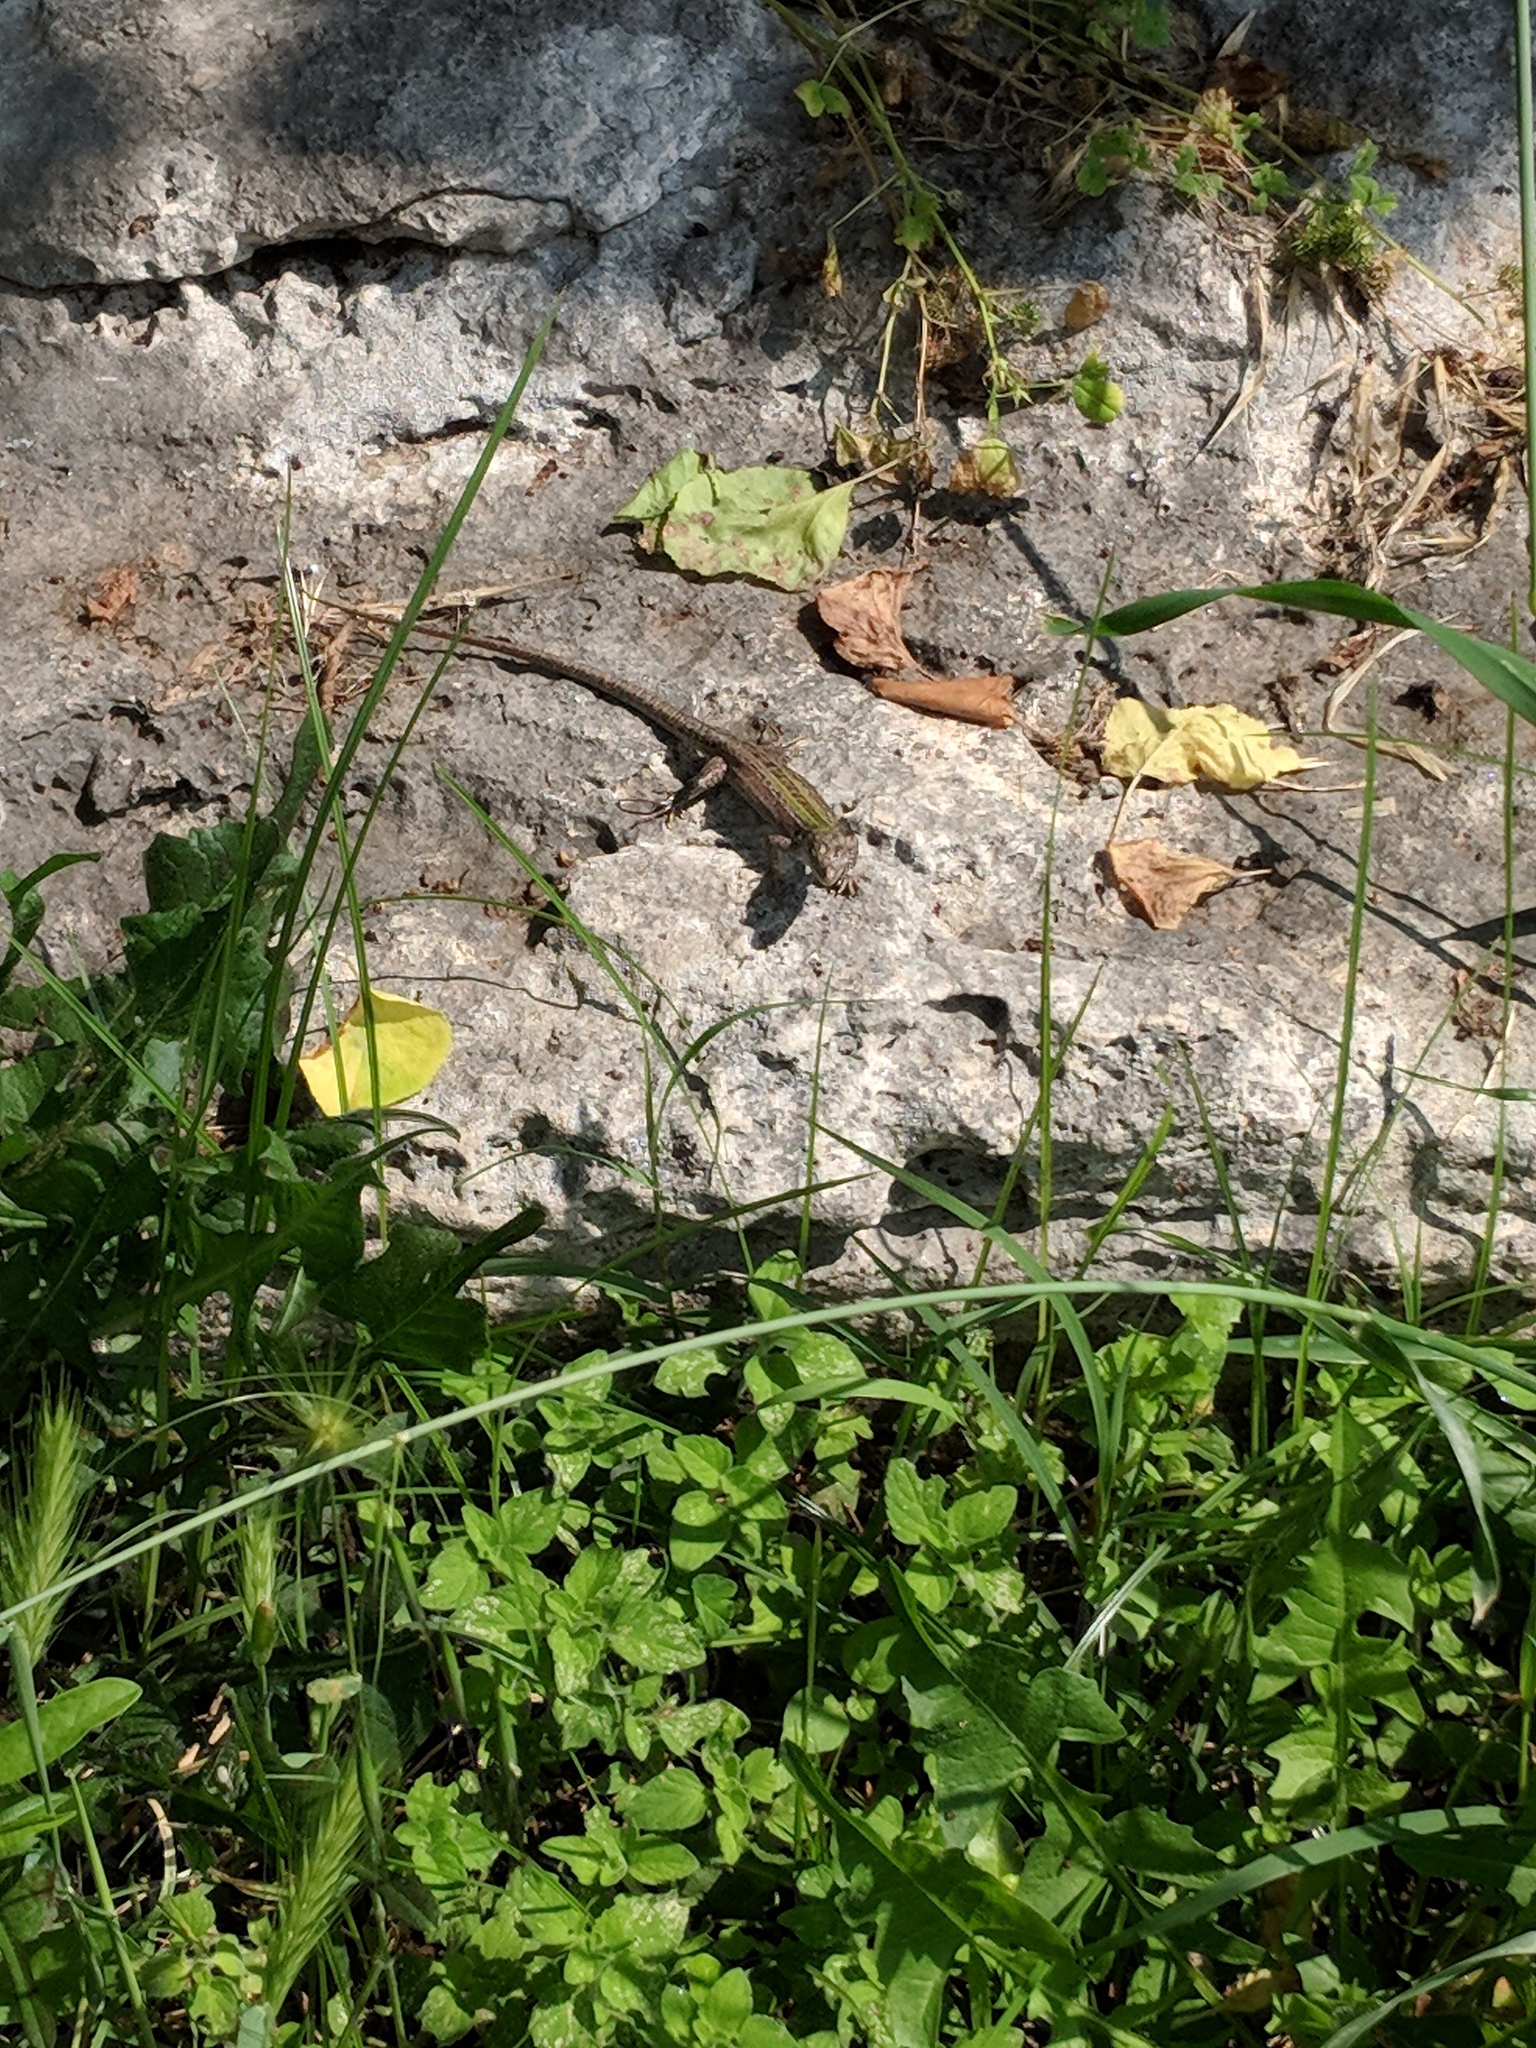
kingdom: Animalia
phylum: Chordata
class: Squamata
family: Lacertidae
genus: Podarcis
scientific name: Podarcis siculus
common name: Italian wall lizard
